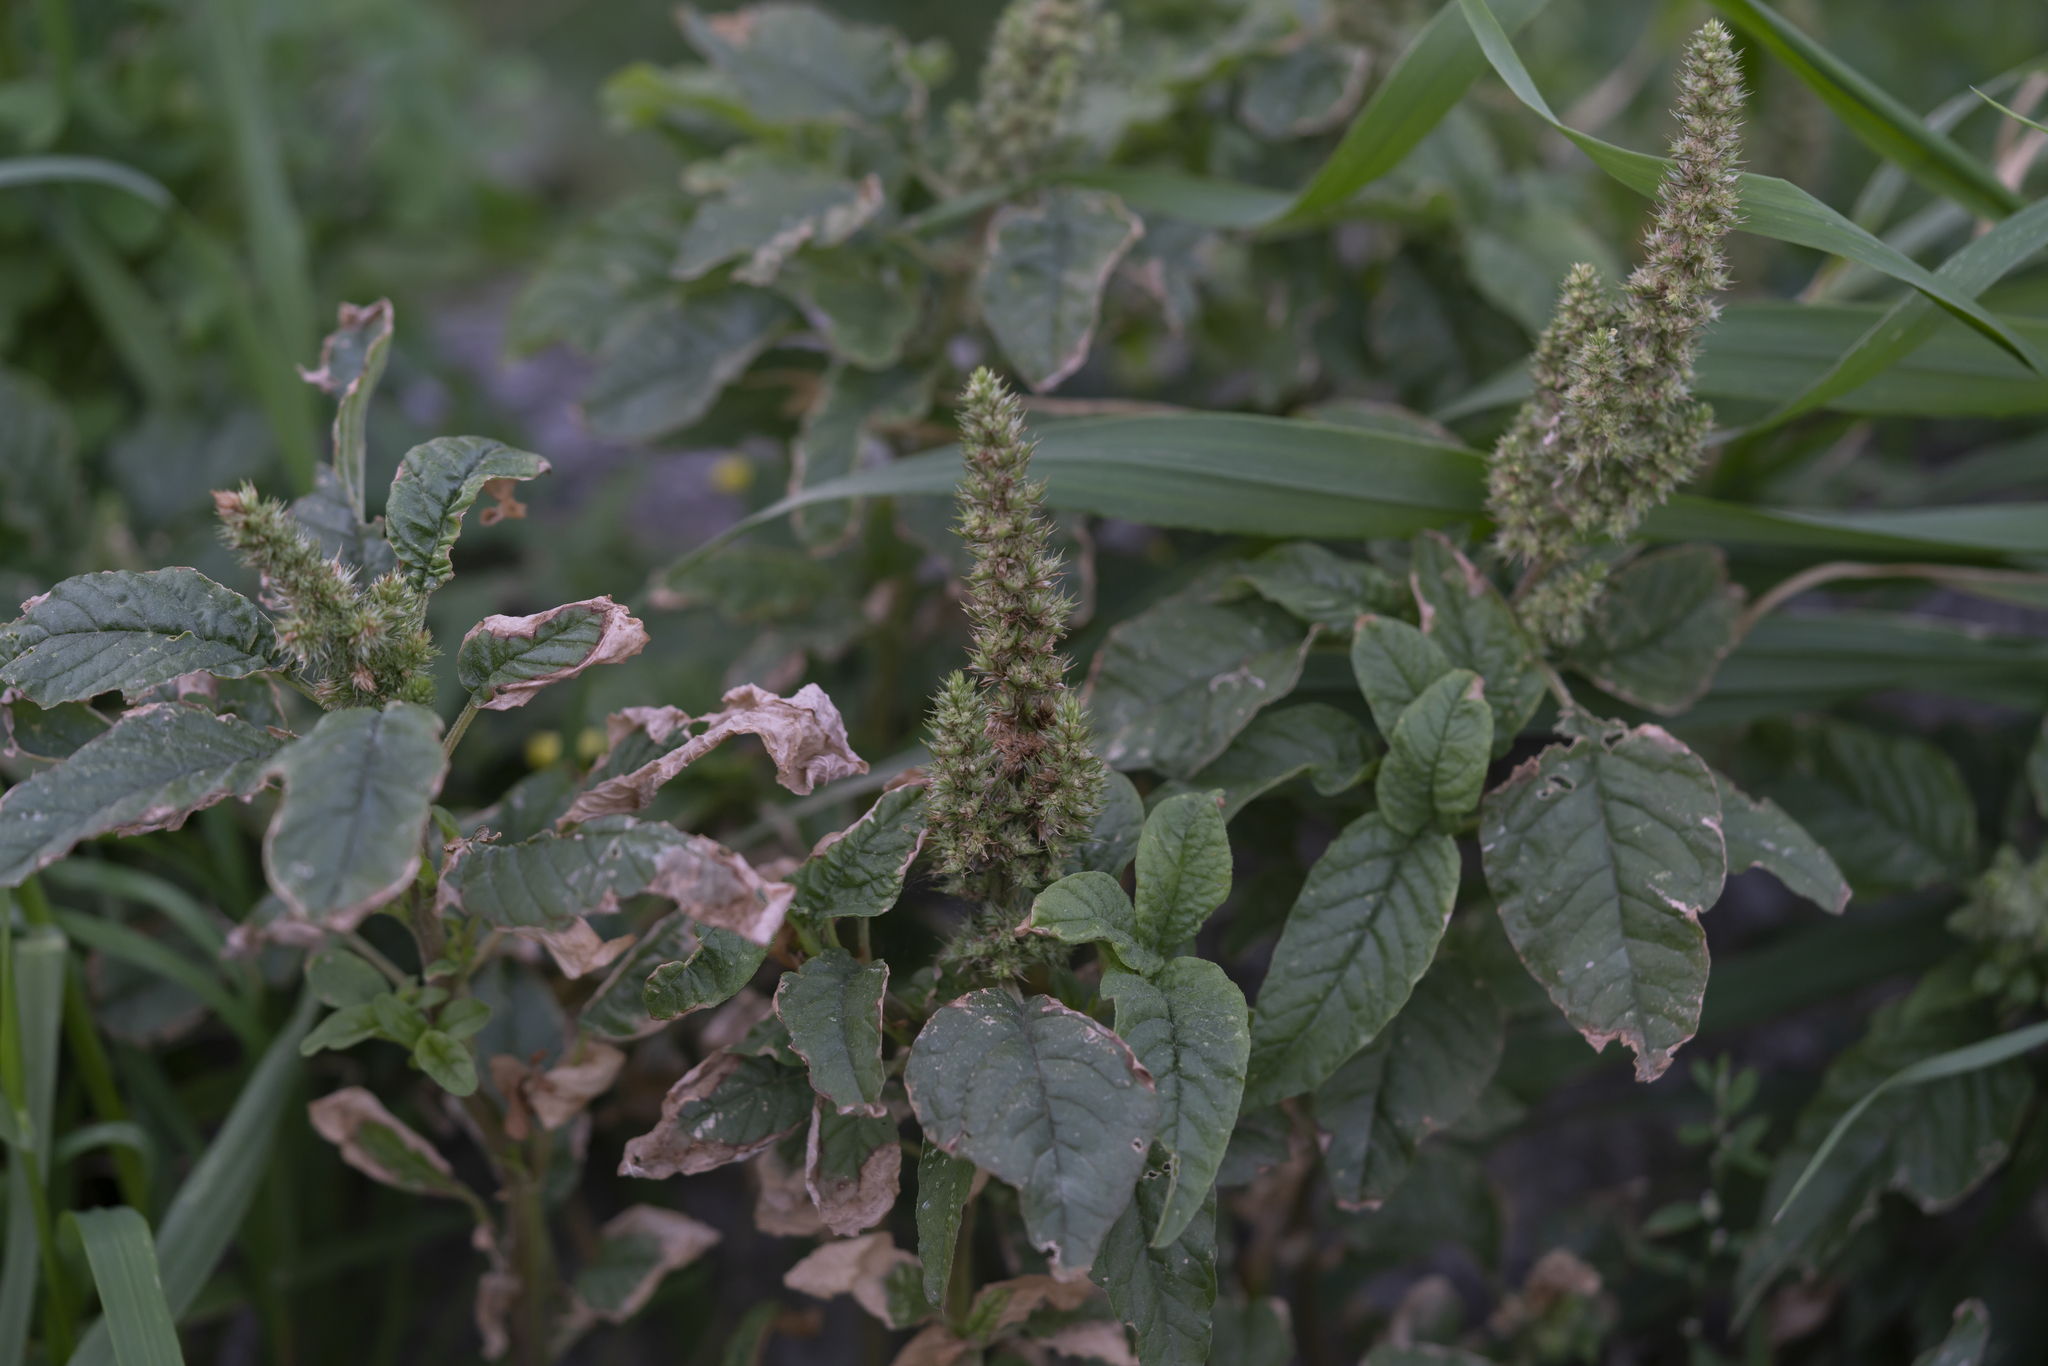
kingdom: Plantae
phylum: Tracheophyta
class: Magnoliopsida
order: Caryophyllales
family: Amaranthaceae
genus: Amaranthus
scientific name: Amaranthus retroflexus
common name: Redroot amaranth
